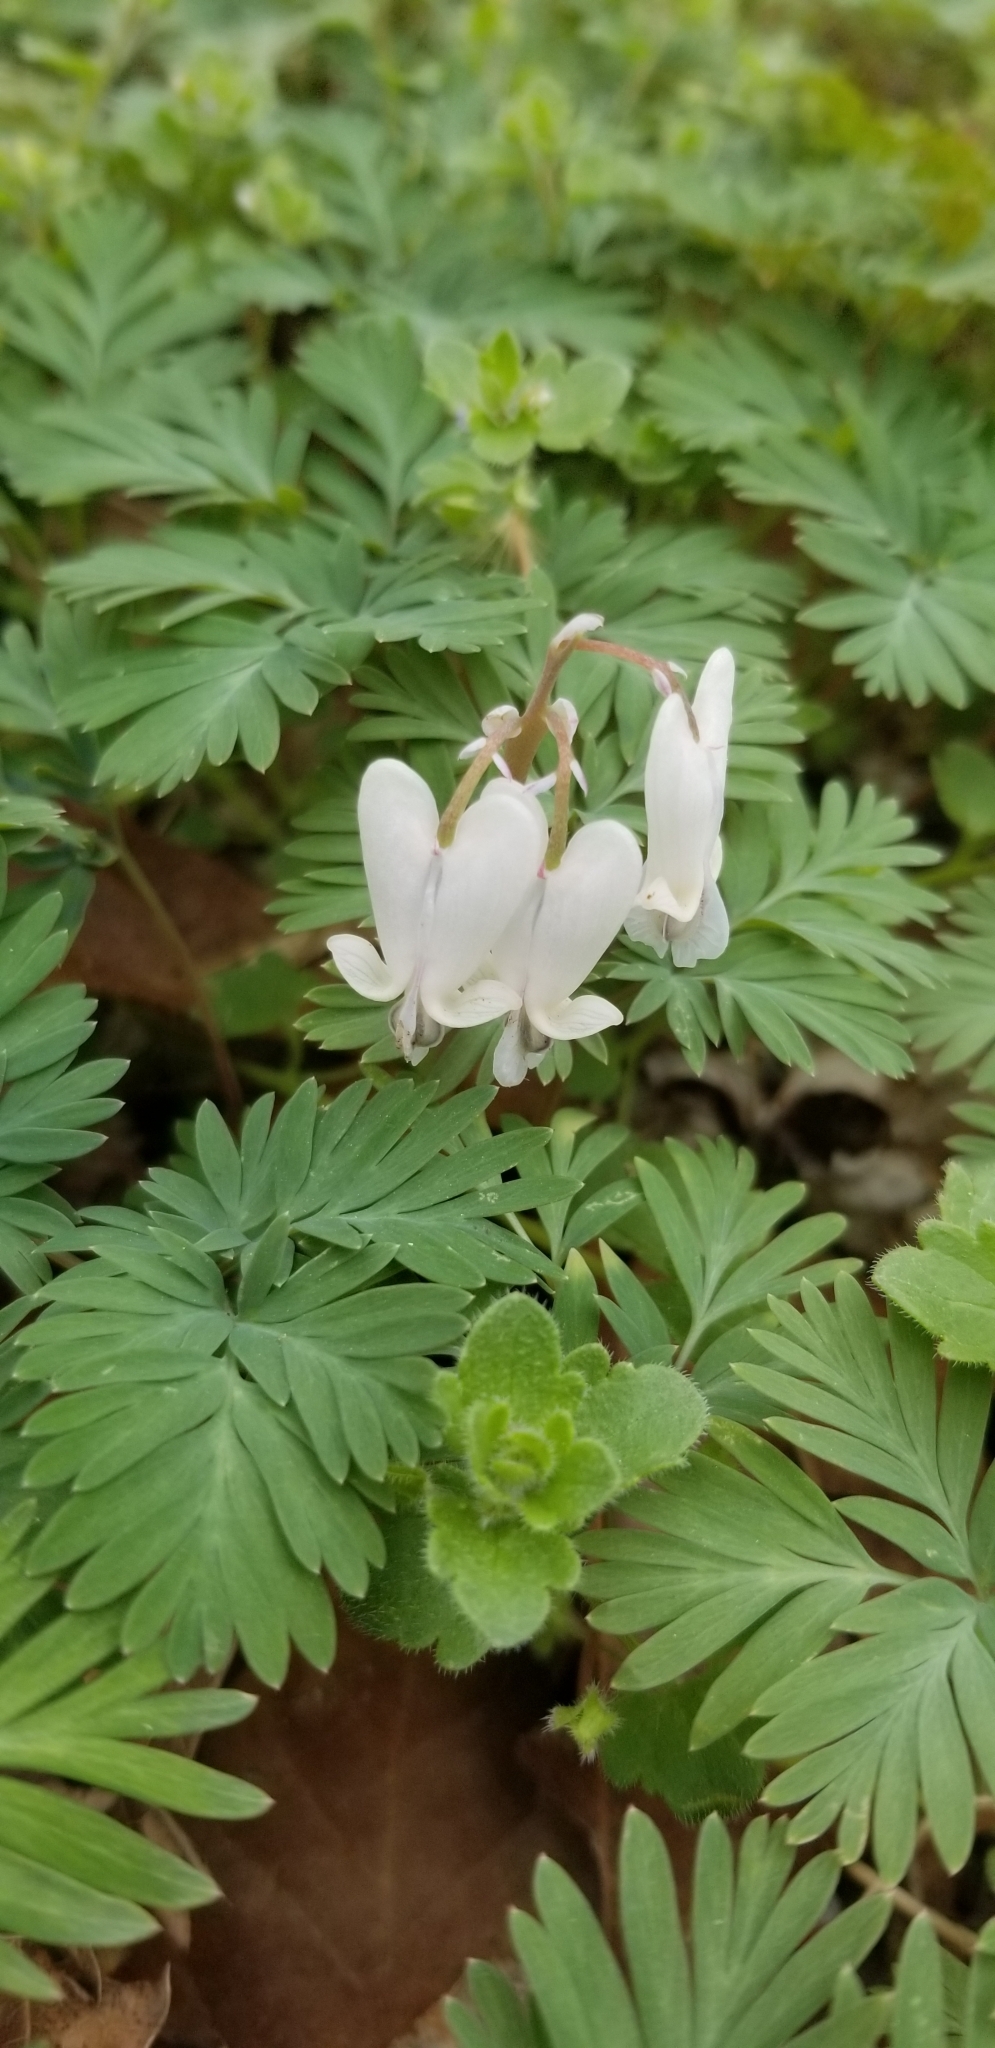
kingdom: Plantae
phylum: Tracheophyta
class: Magnoliopsida
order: Ranunculales
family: Papaveraceae
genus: Dicentra
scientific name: Dicentra canadensis
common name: Squirrel-corn
